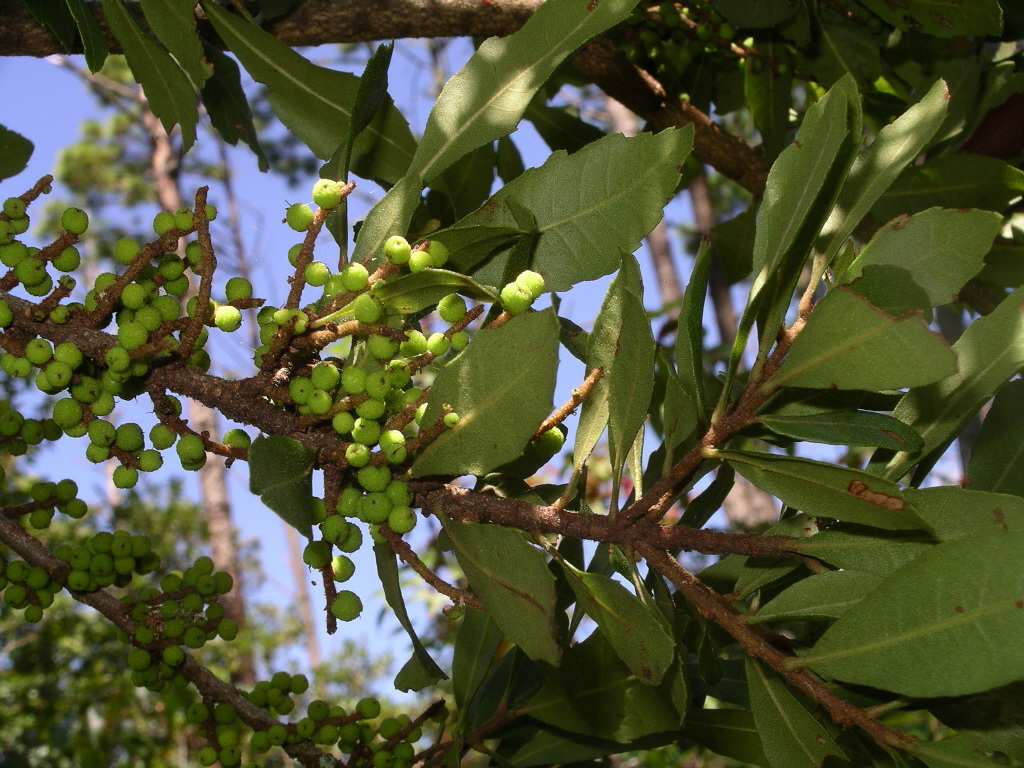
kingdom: Plantae
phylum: Tracheophyta
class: Magnoliopsida
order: Fagales
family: Myricaceae
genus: Morella
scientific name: Morella cerifera
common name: Wax myrtle
